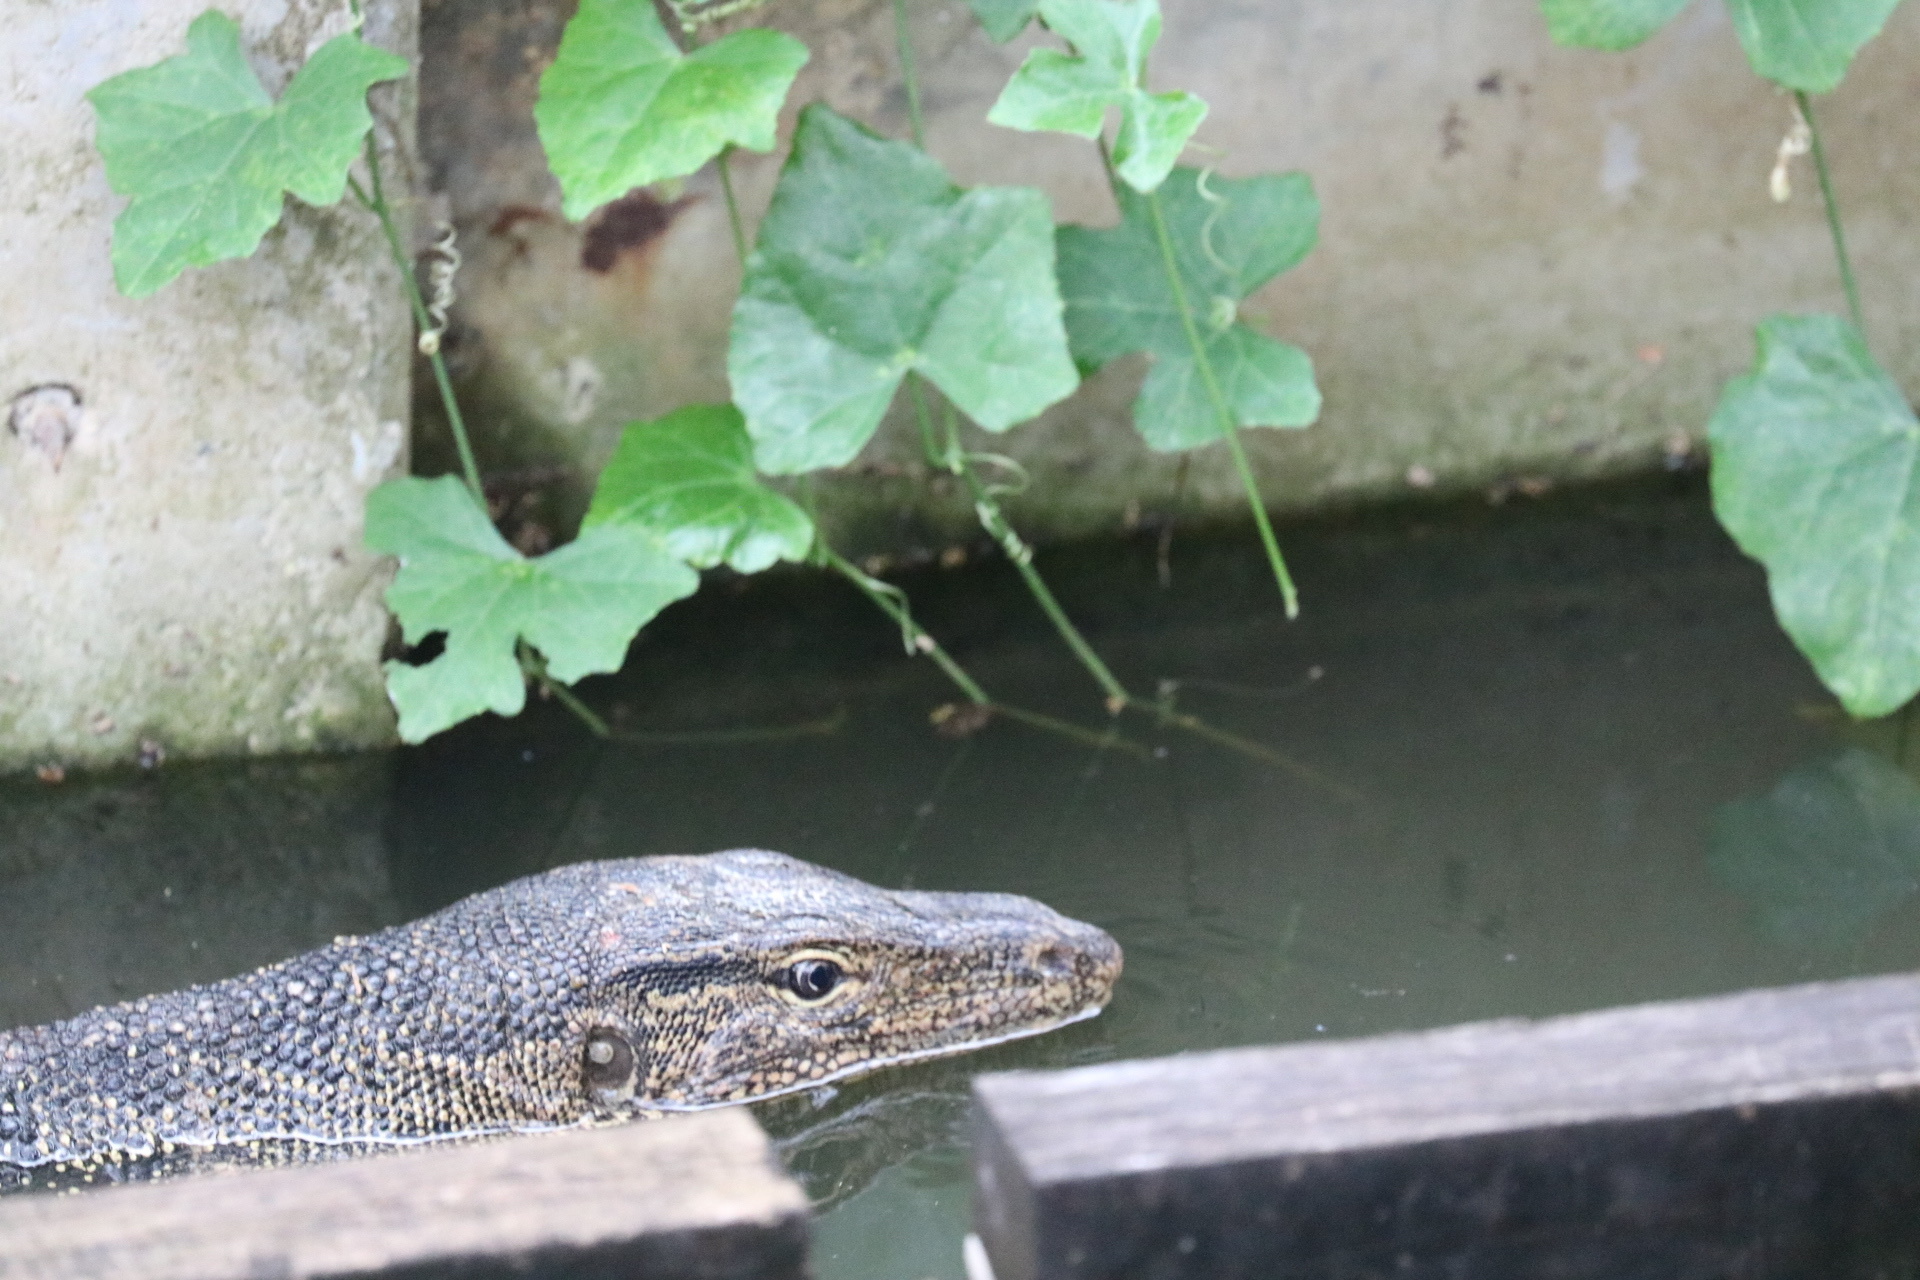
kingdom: Animalia
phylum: Chordata
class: Squamata
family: Varanidae
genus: Varanus
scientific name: Varanus salvator
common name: Common water monitor
